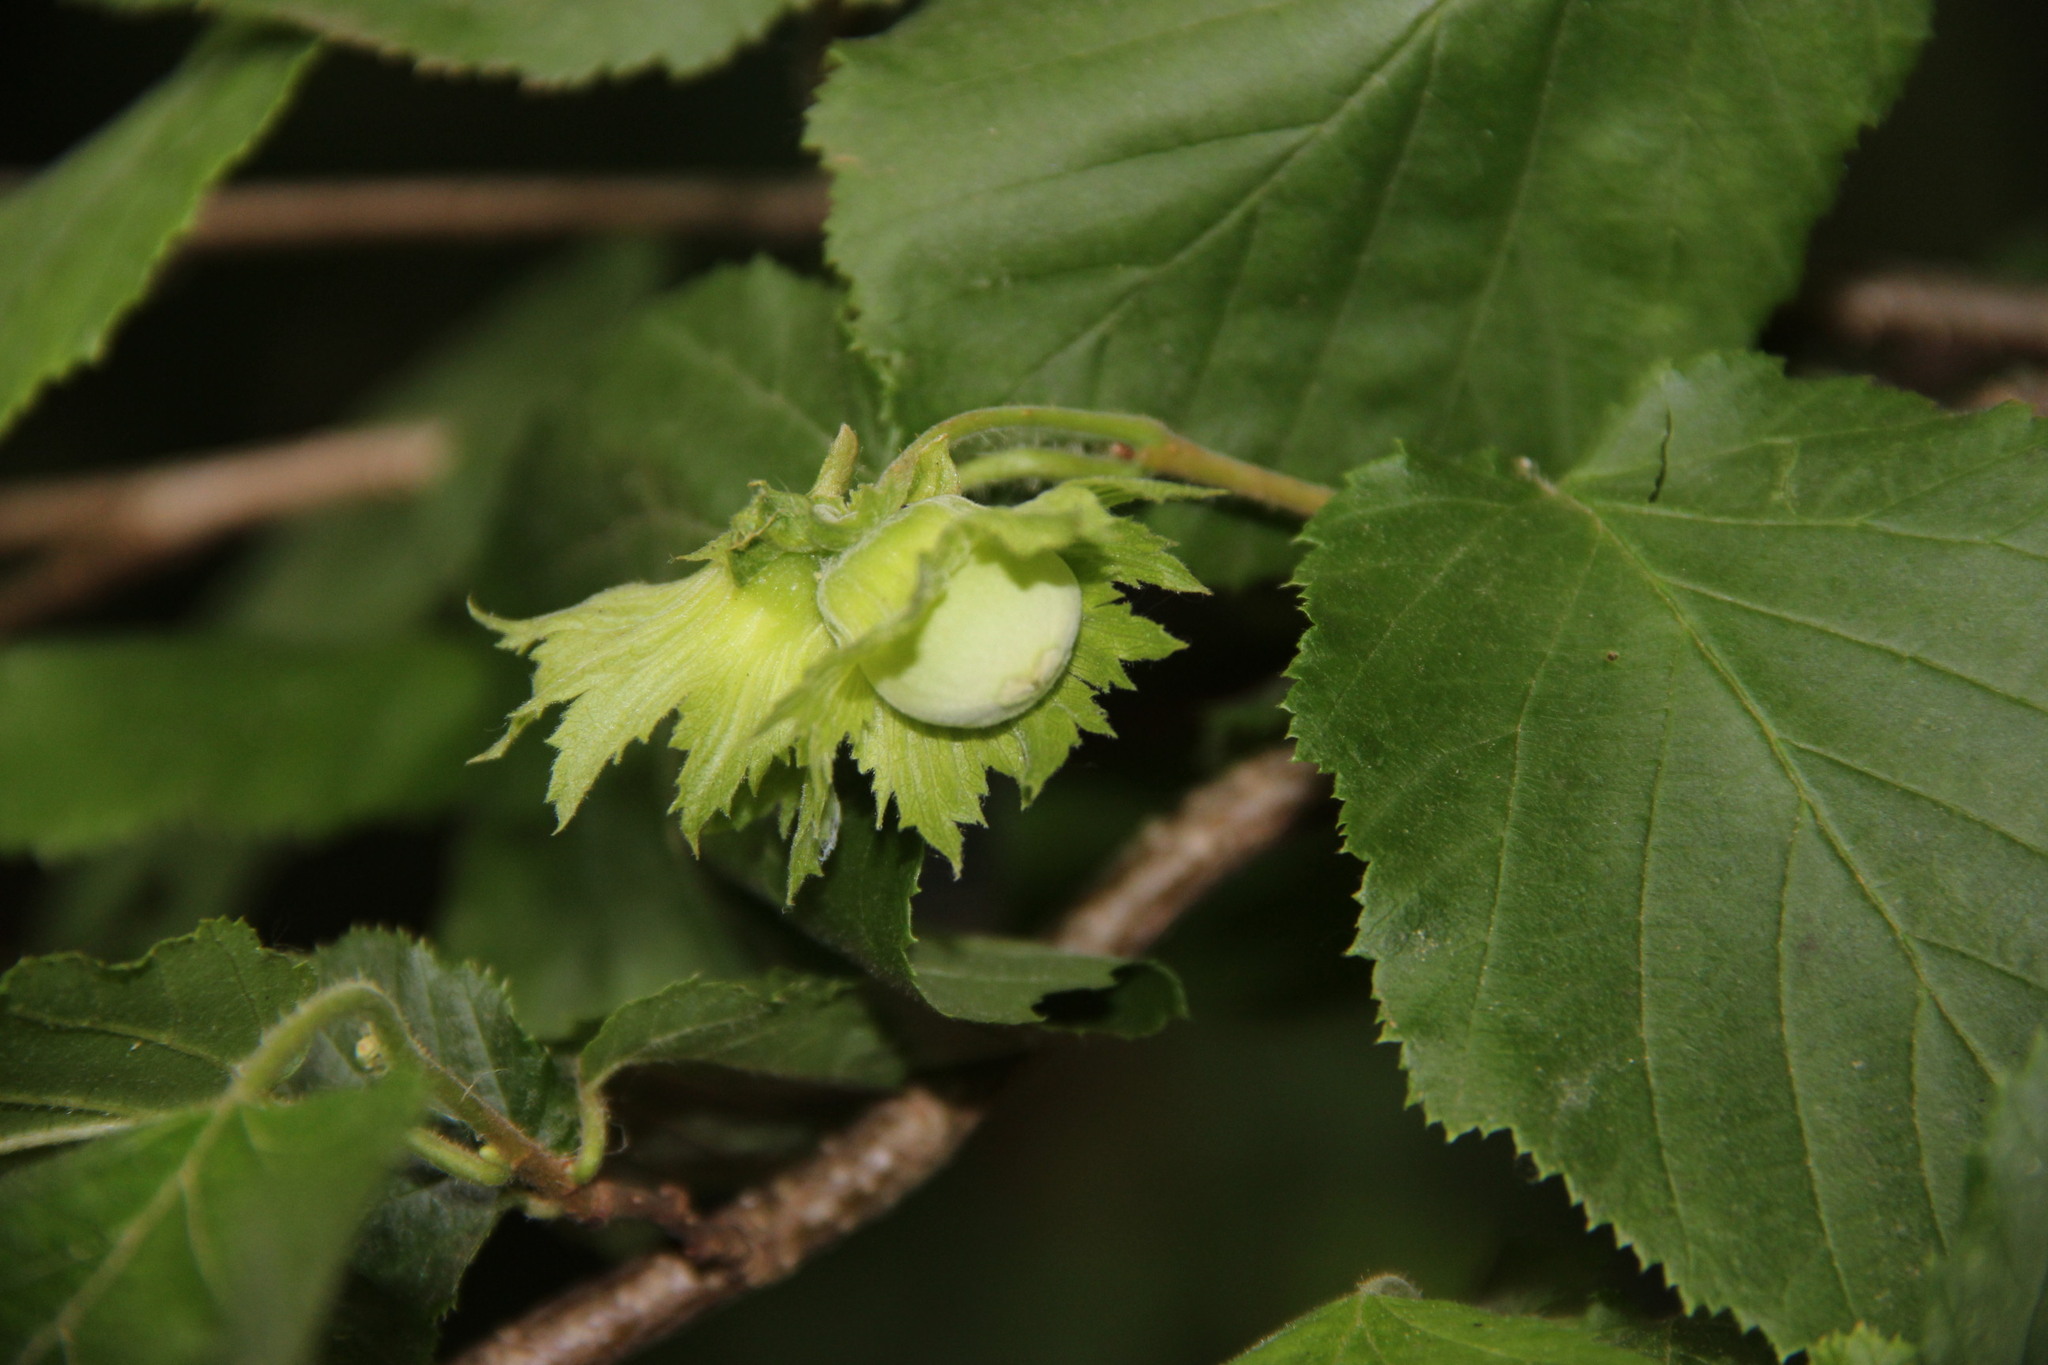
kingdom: Plantae
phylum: Tracheophyta
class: Magnoliopsida
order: Fagales
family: Betulaceae
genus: Corylus
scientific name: Corylus avellana
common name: European hazel
